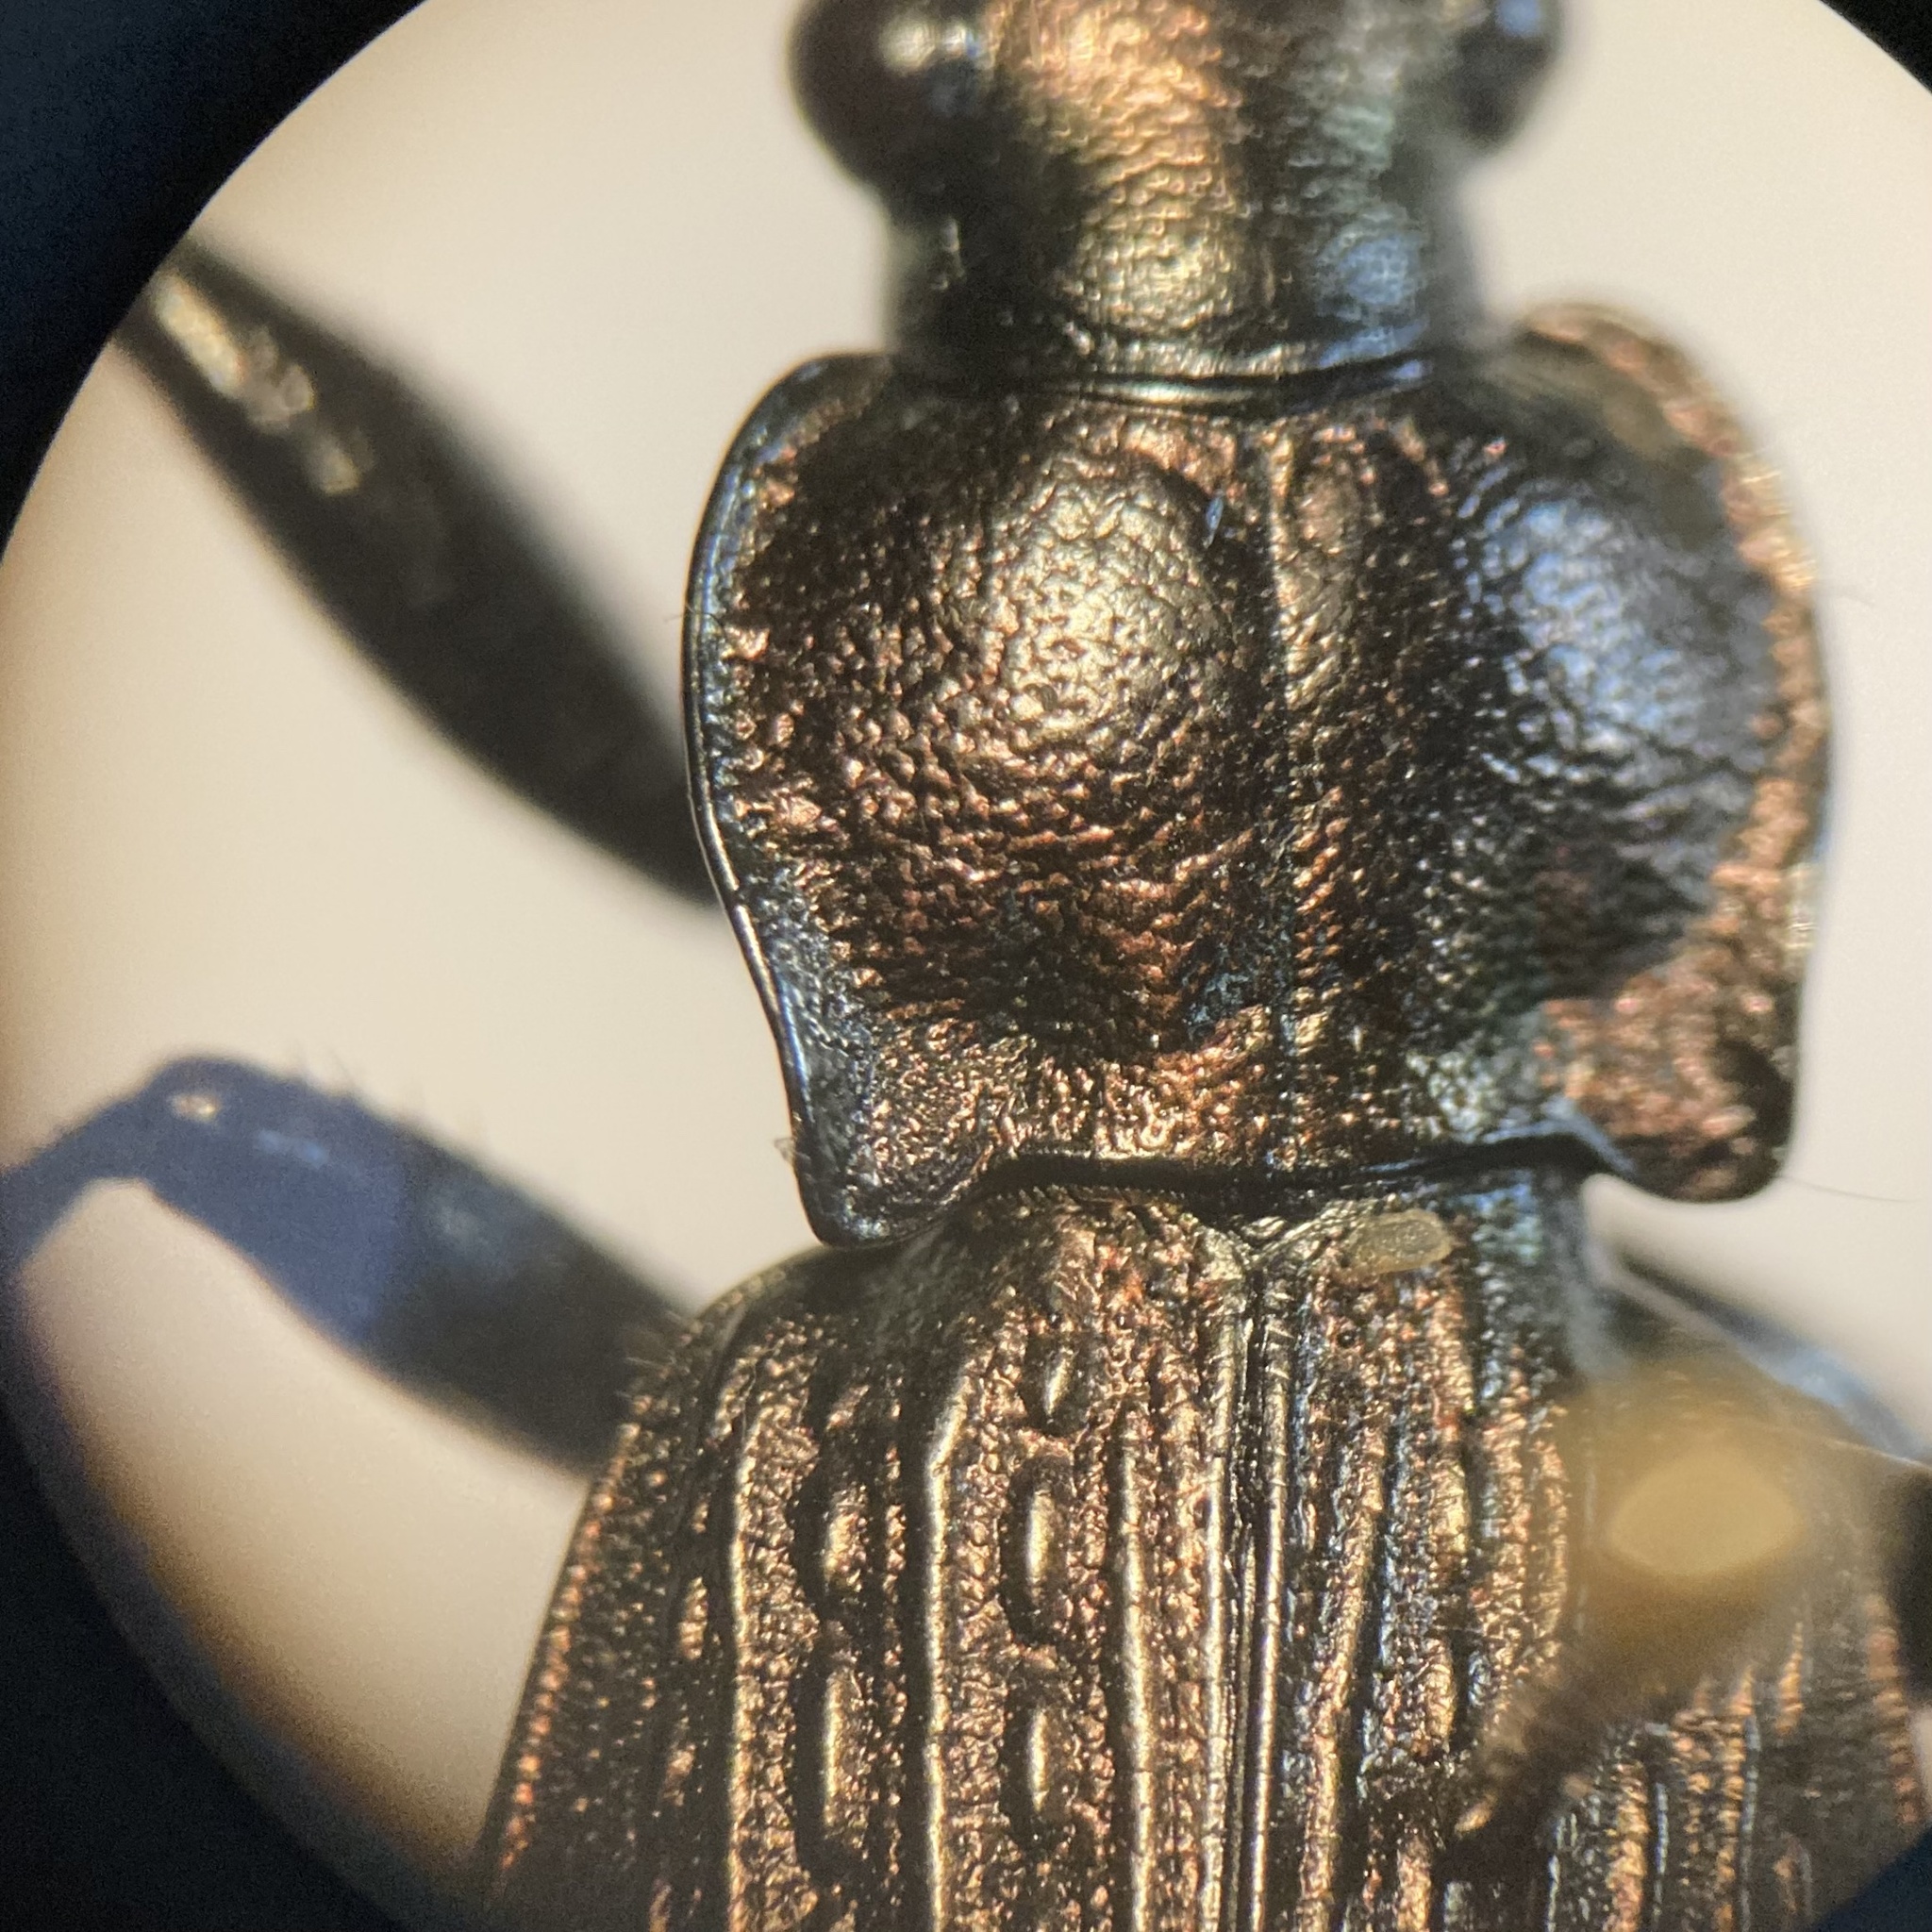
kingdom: Animalia
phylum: Arthropoda
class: Insecta
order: Coleoptera
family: Carabidae
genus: Carabus
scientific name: Carabus granulatus
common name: Granulate ground beetle
